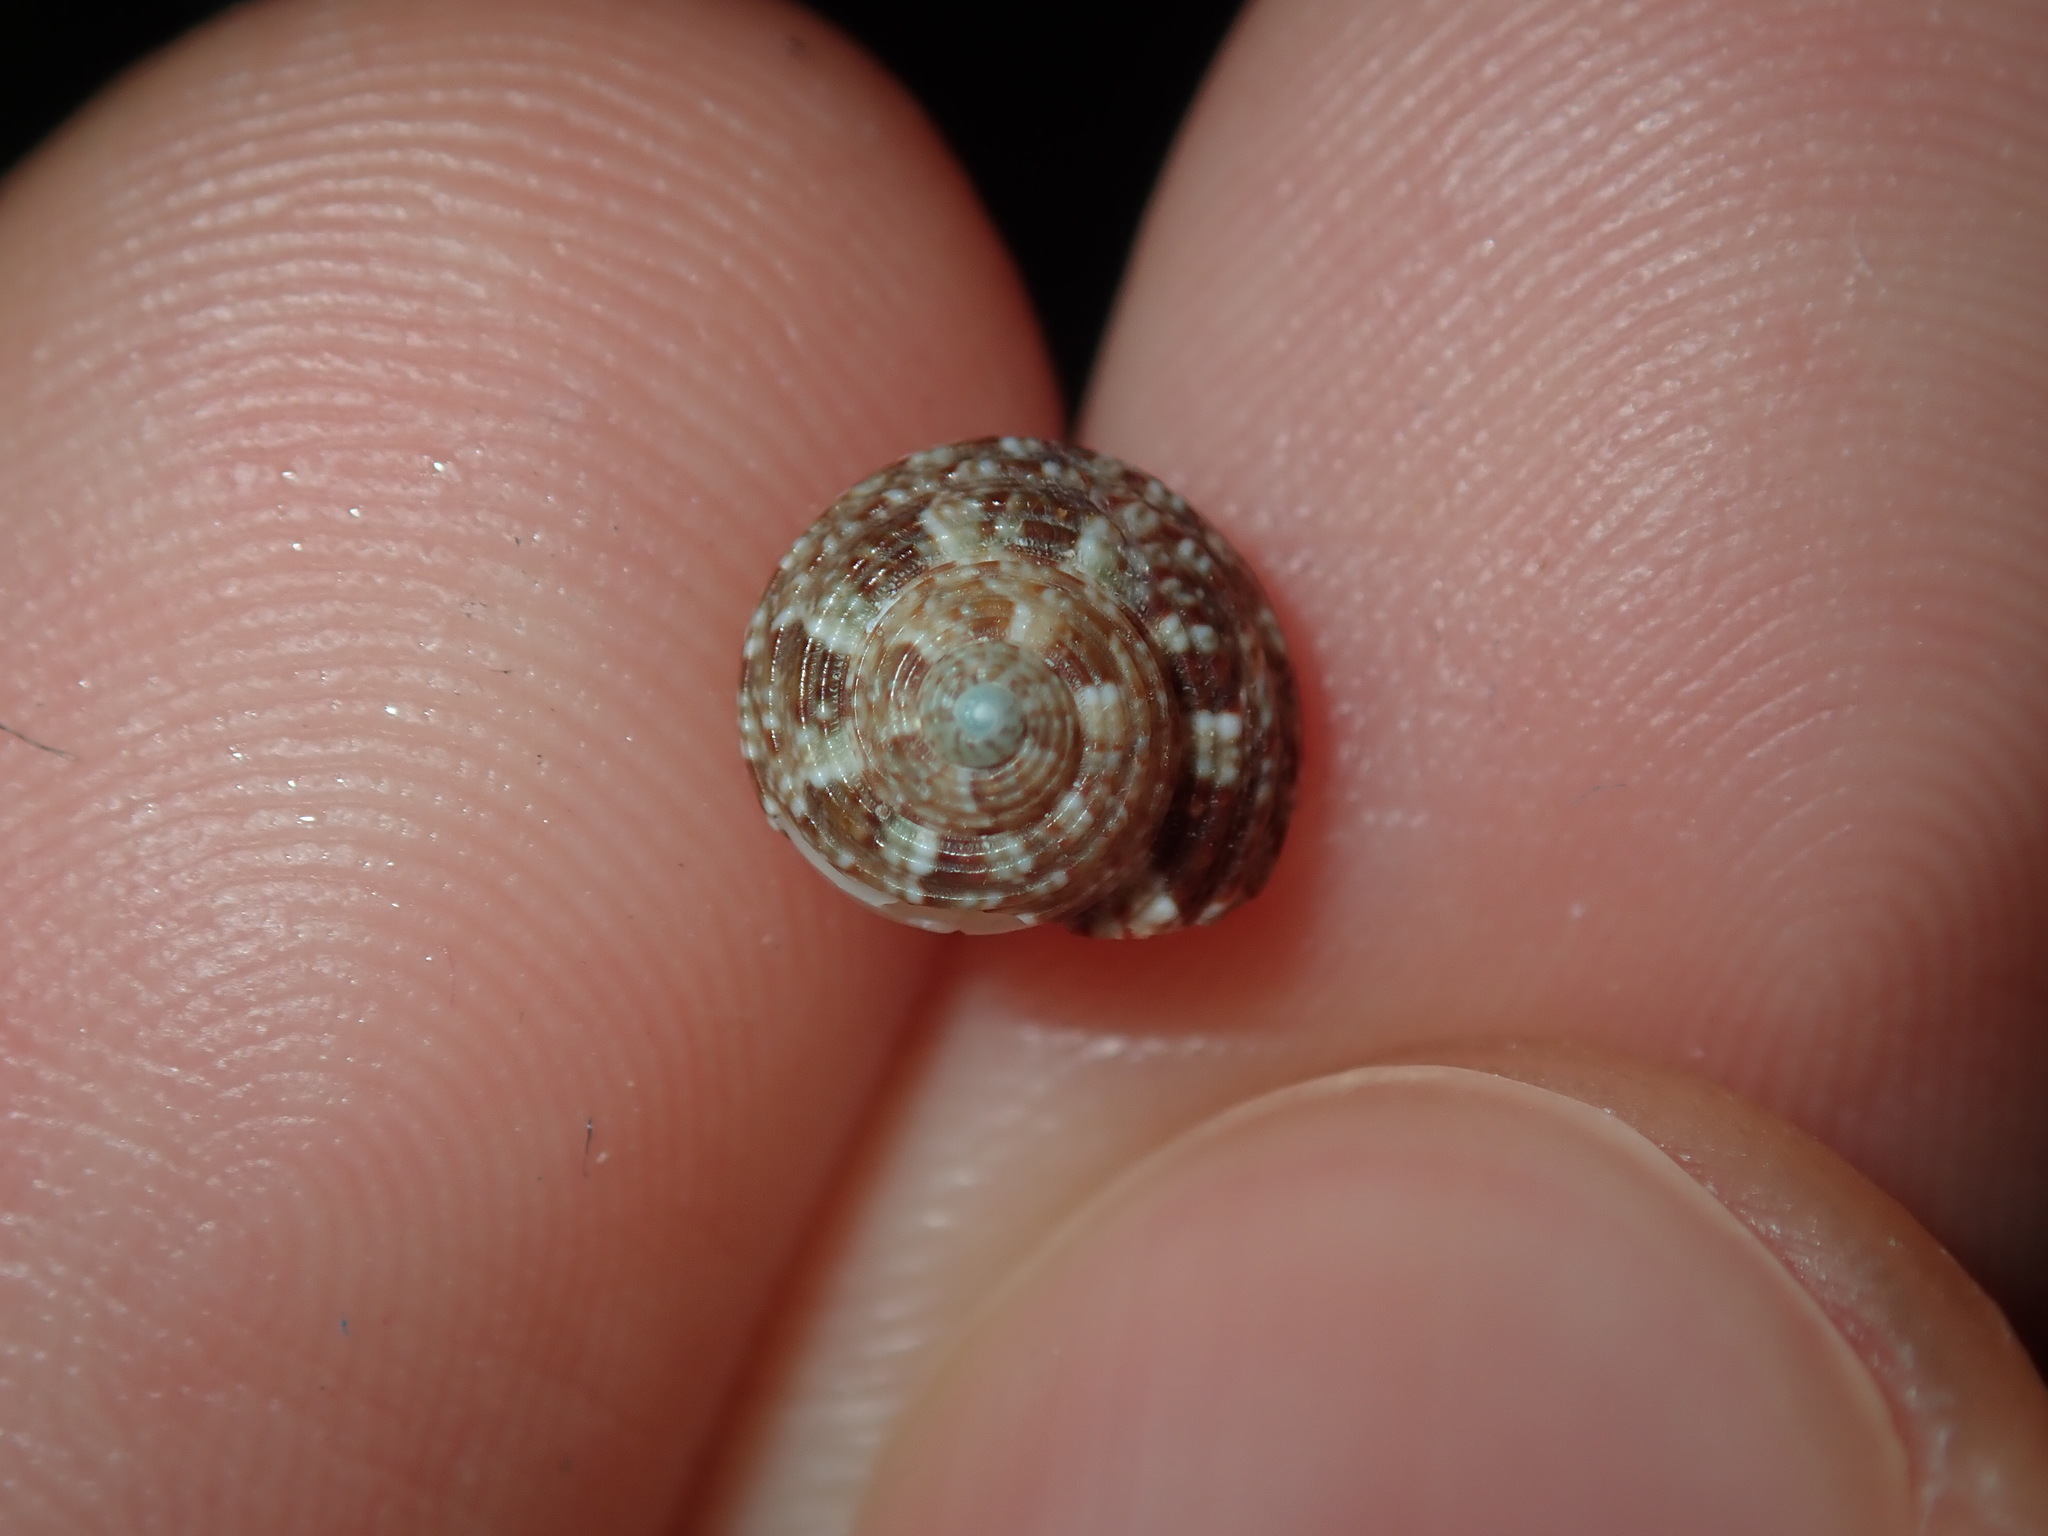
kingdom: Animalia
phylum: Mollusca
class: Gastropoda
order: Trochida
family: Trochidae
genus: Eurytrochus
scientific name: Eurytrochus strangei
